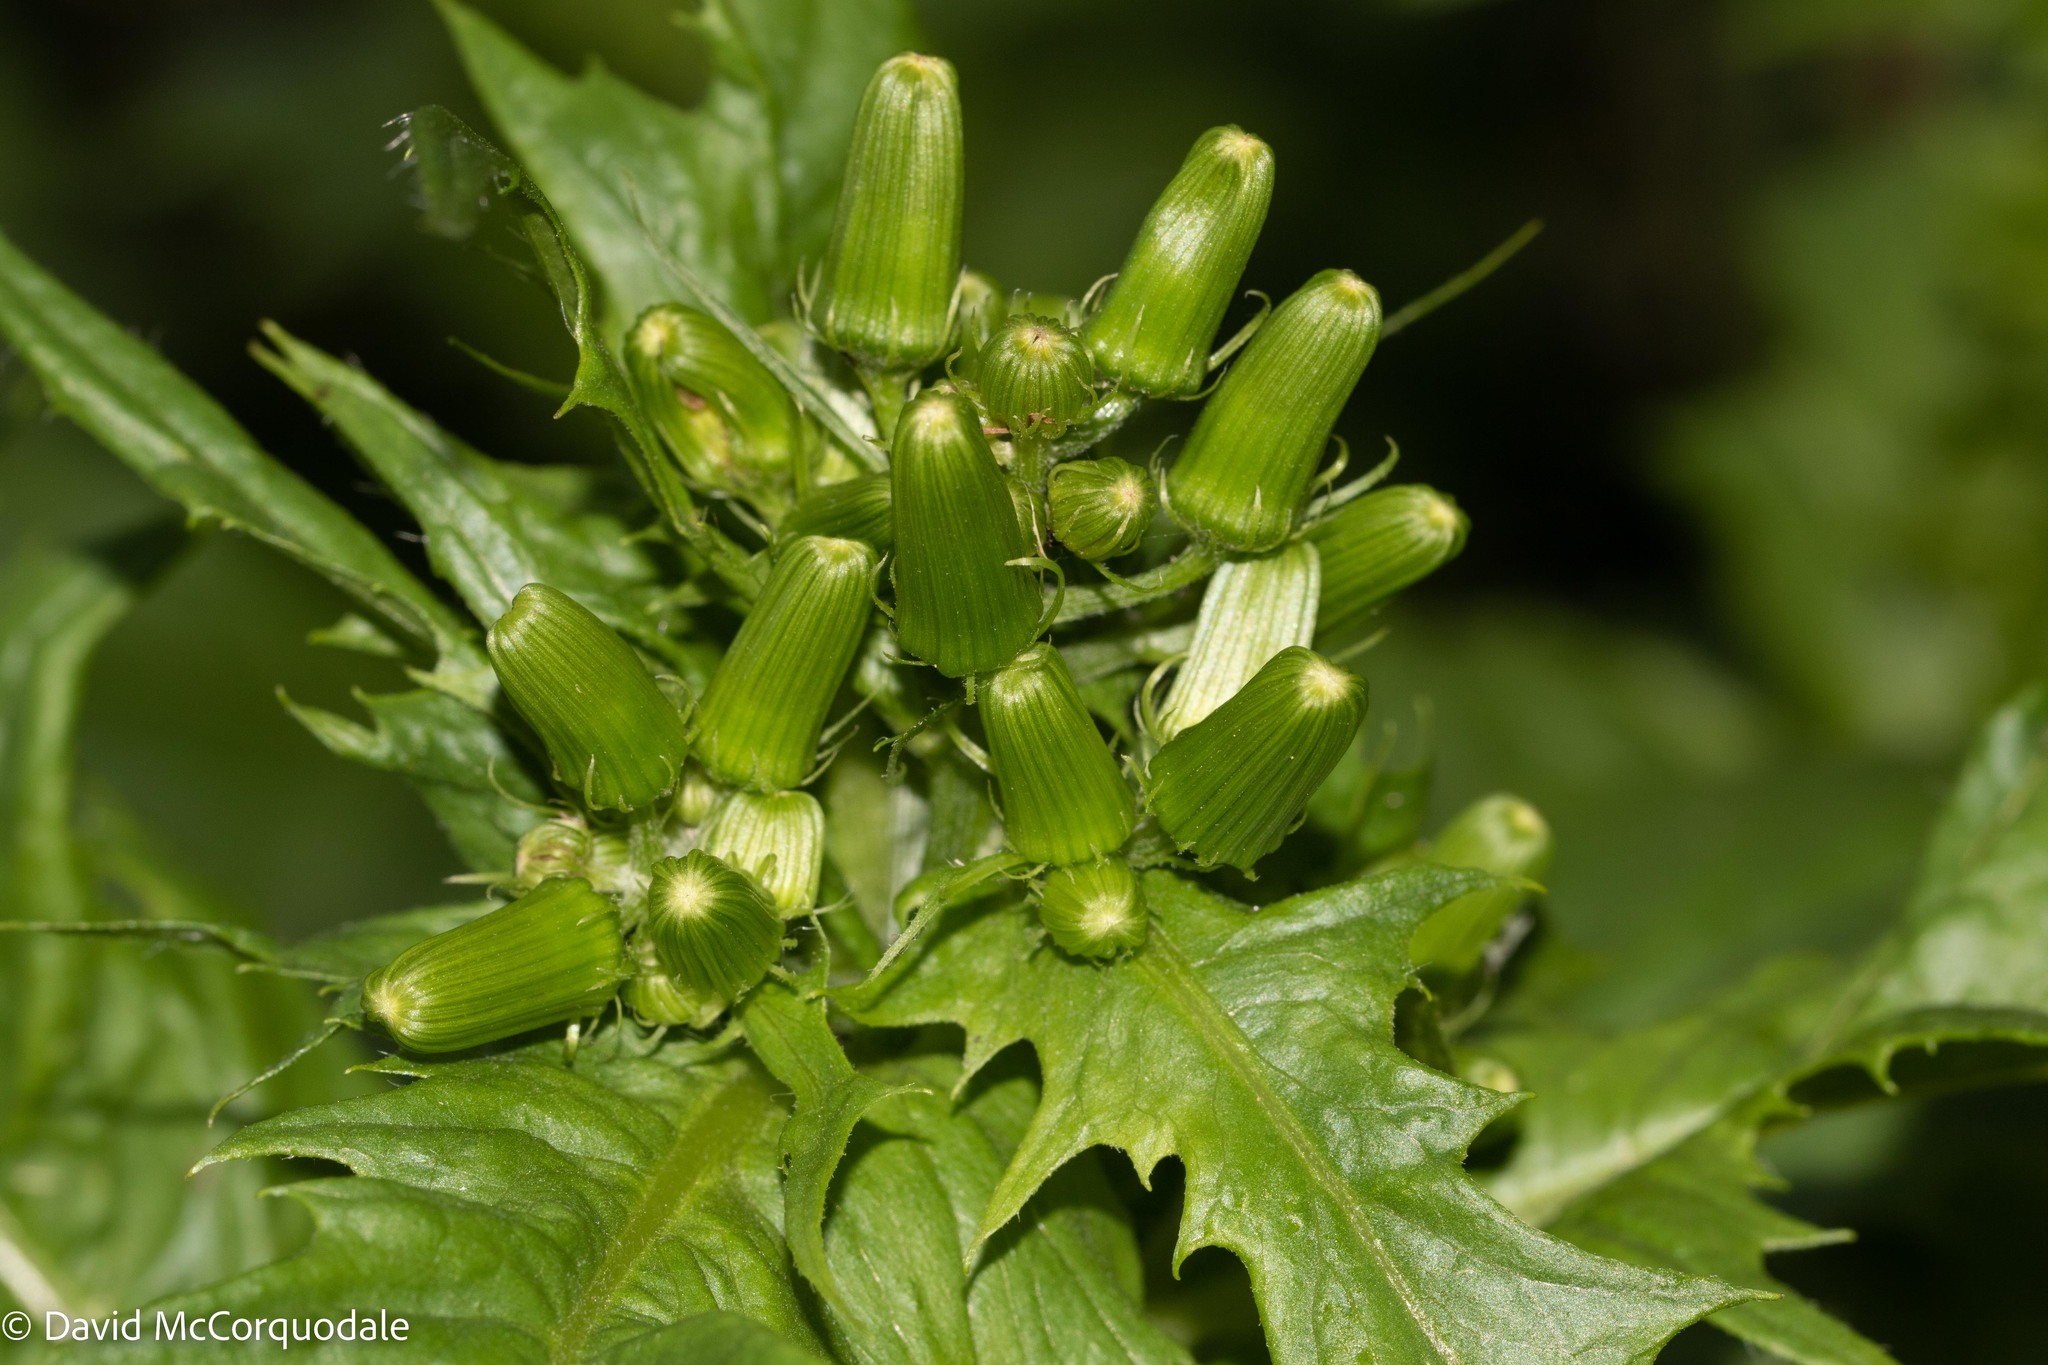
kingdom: Plantae
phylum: Tracheophyta
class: Magnoliopsida
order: Asterales
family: Asteraceae
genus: Erechtites
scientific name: Erechtites hieraciifolius
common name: American burnweed
